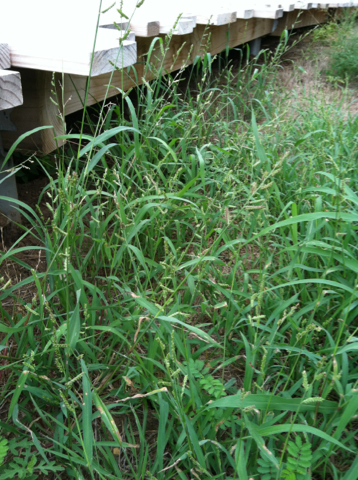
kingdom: Plantae
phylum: Tracheophyta
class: Liliopsida
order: Poales
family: Poaceae
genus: Echinochloa
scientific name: Echinochloa colonum
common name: Jungle rice
